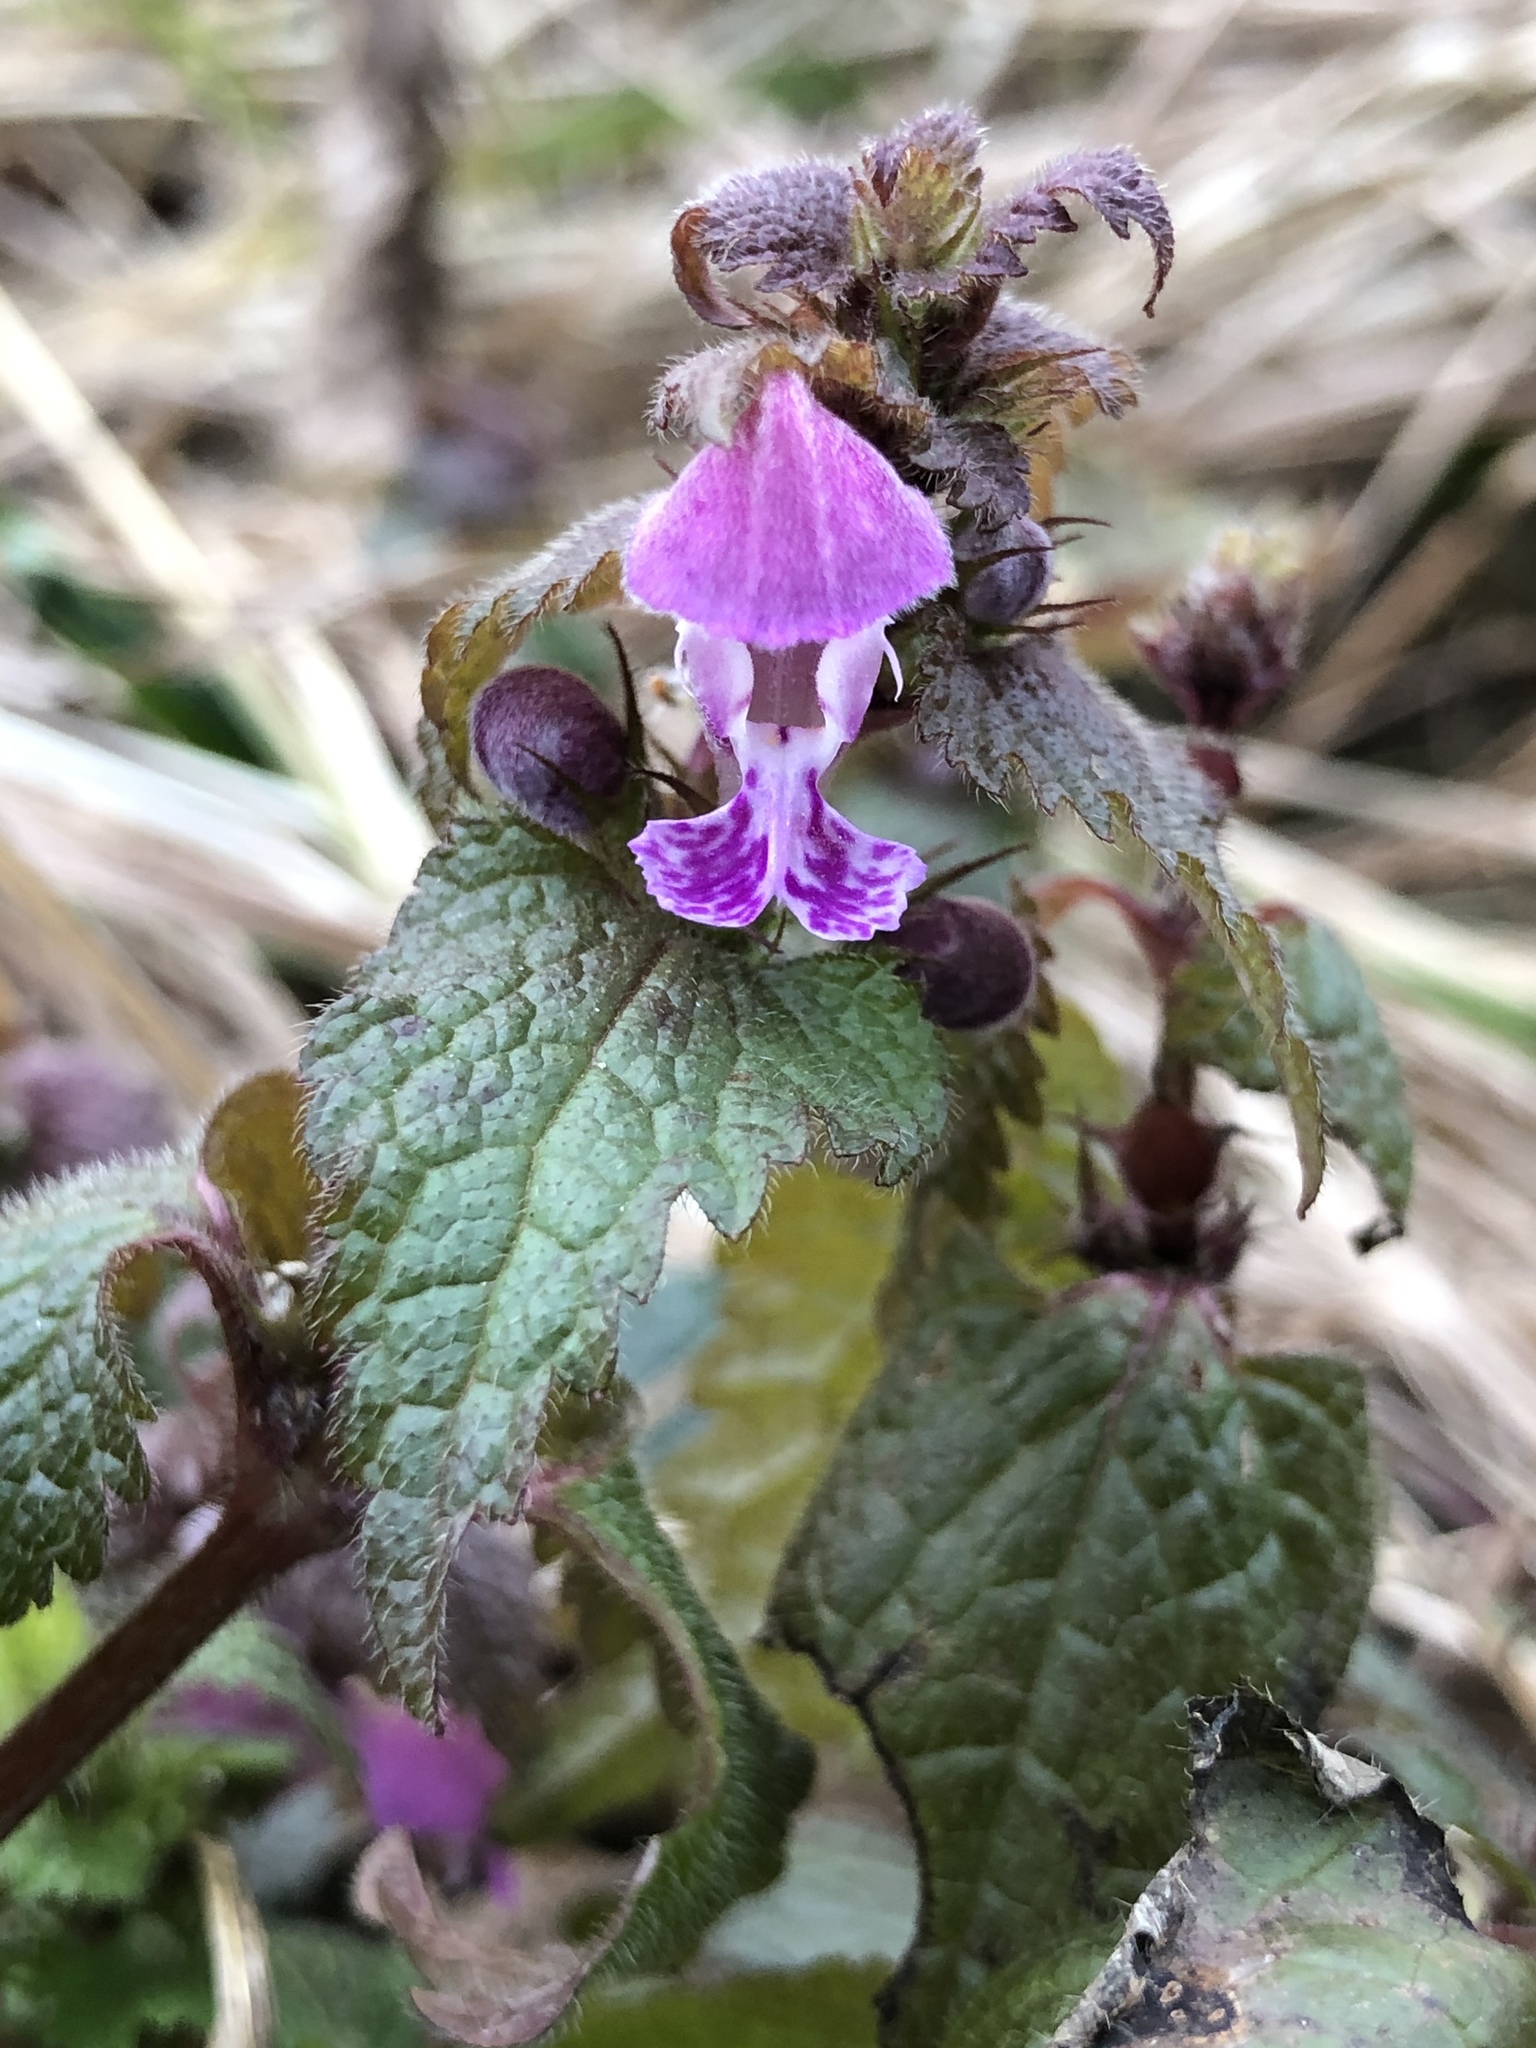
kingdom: Plantae
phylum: Tracheophyta
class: Magnoliopsida
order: Lamiales
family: Lamiaceae
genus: Lamium
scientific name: Lamium maculatum
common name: Spotted dead-nettle
